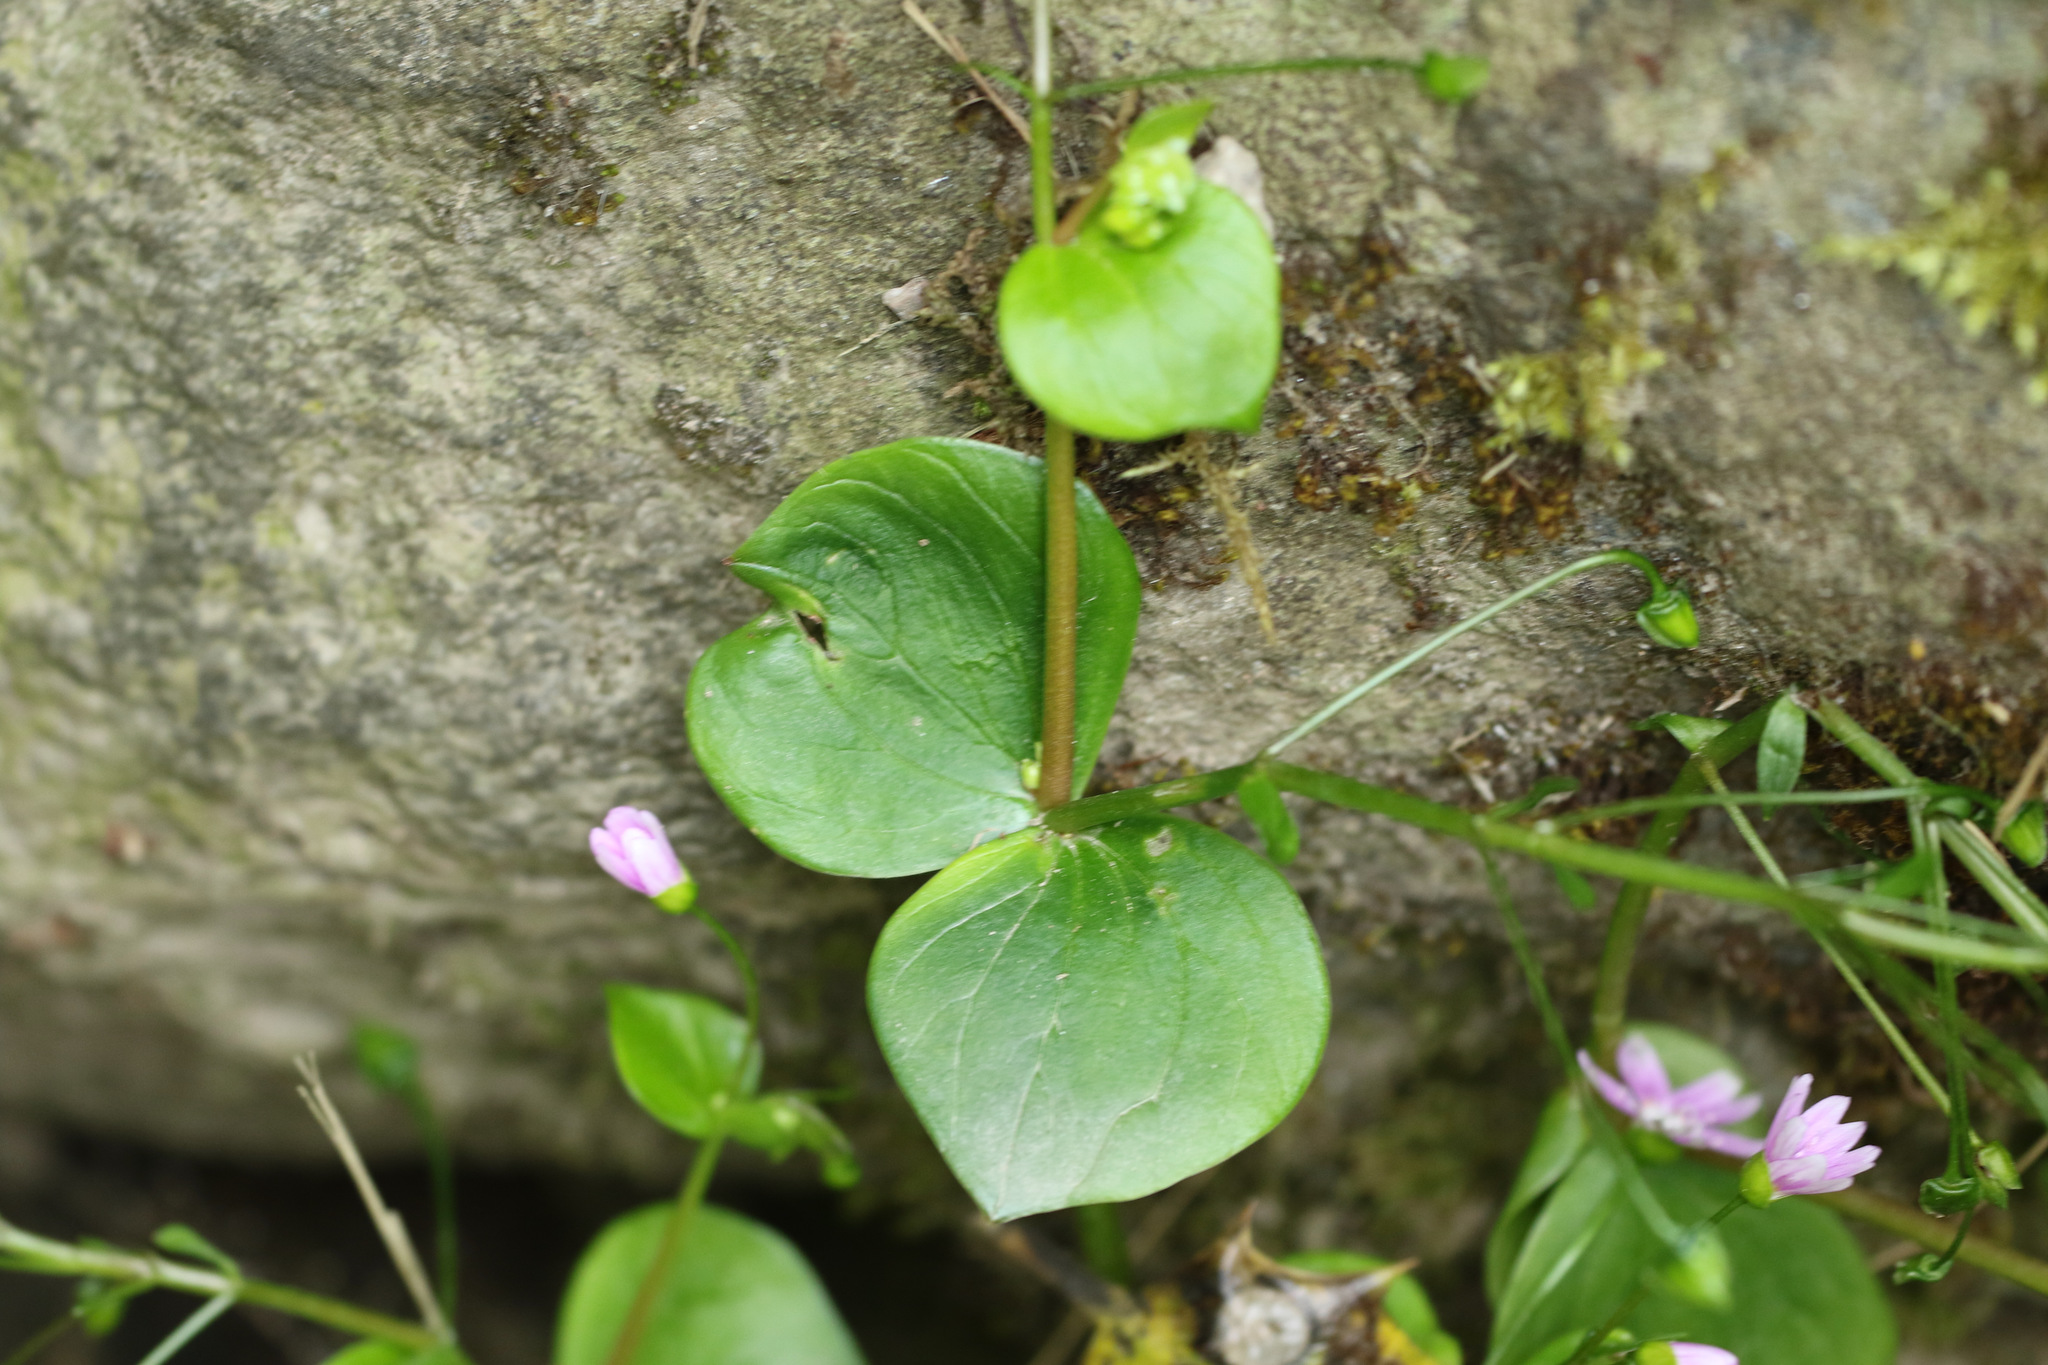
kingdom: Plantae
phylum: Tracheophyta
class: Magnoliopsida
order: Caryophyllales
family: Montiaceae
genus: Claytonia
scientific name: Claytonia sibirica
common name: Pink purslane
